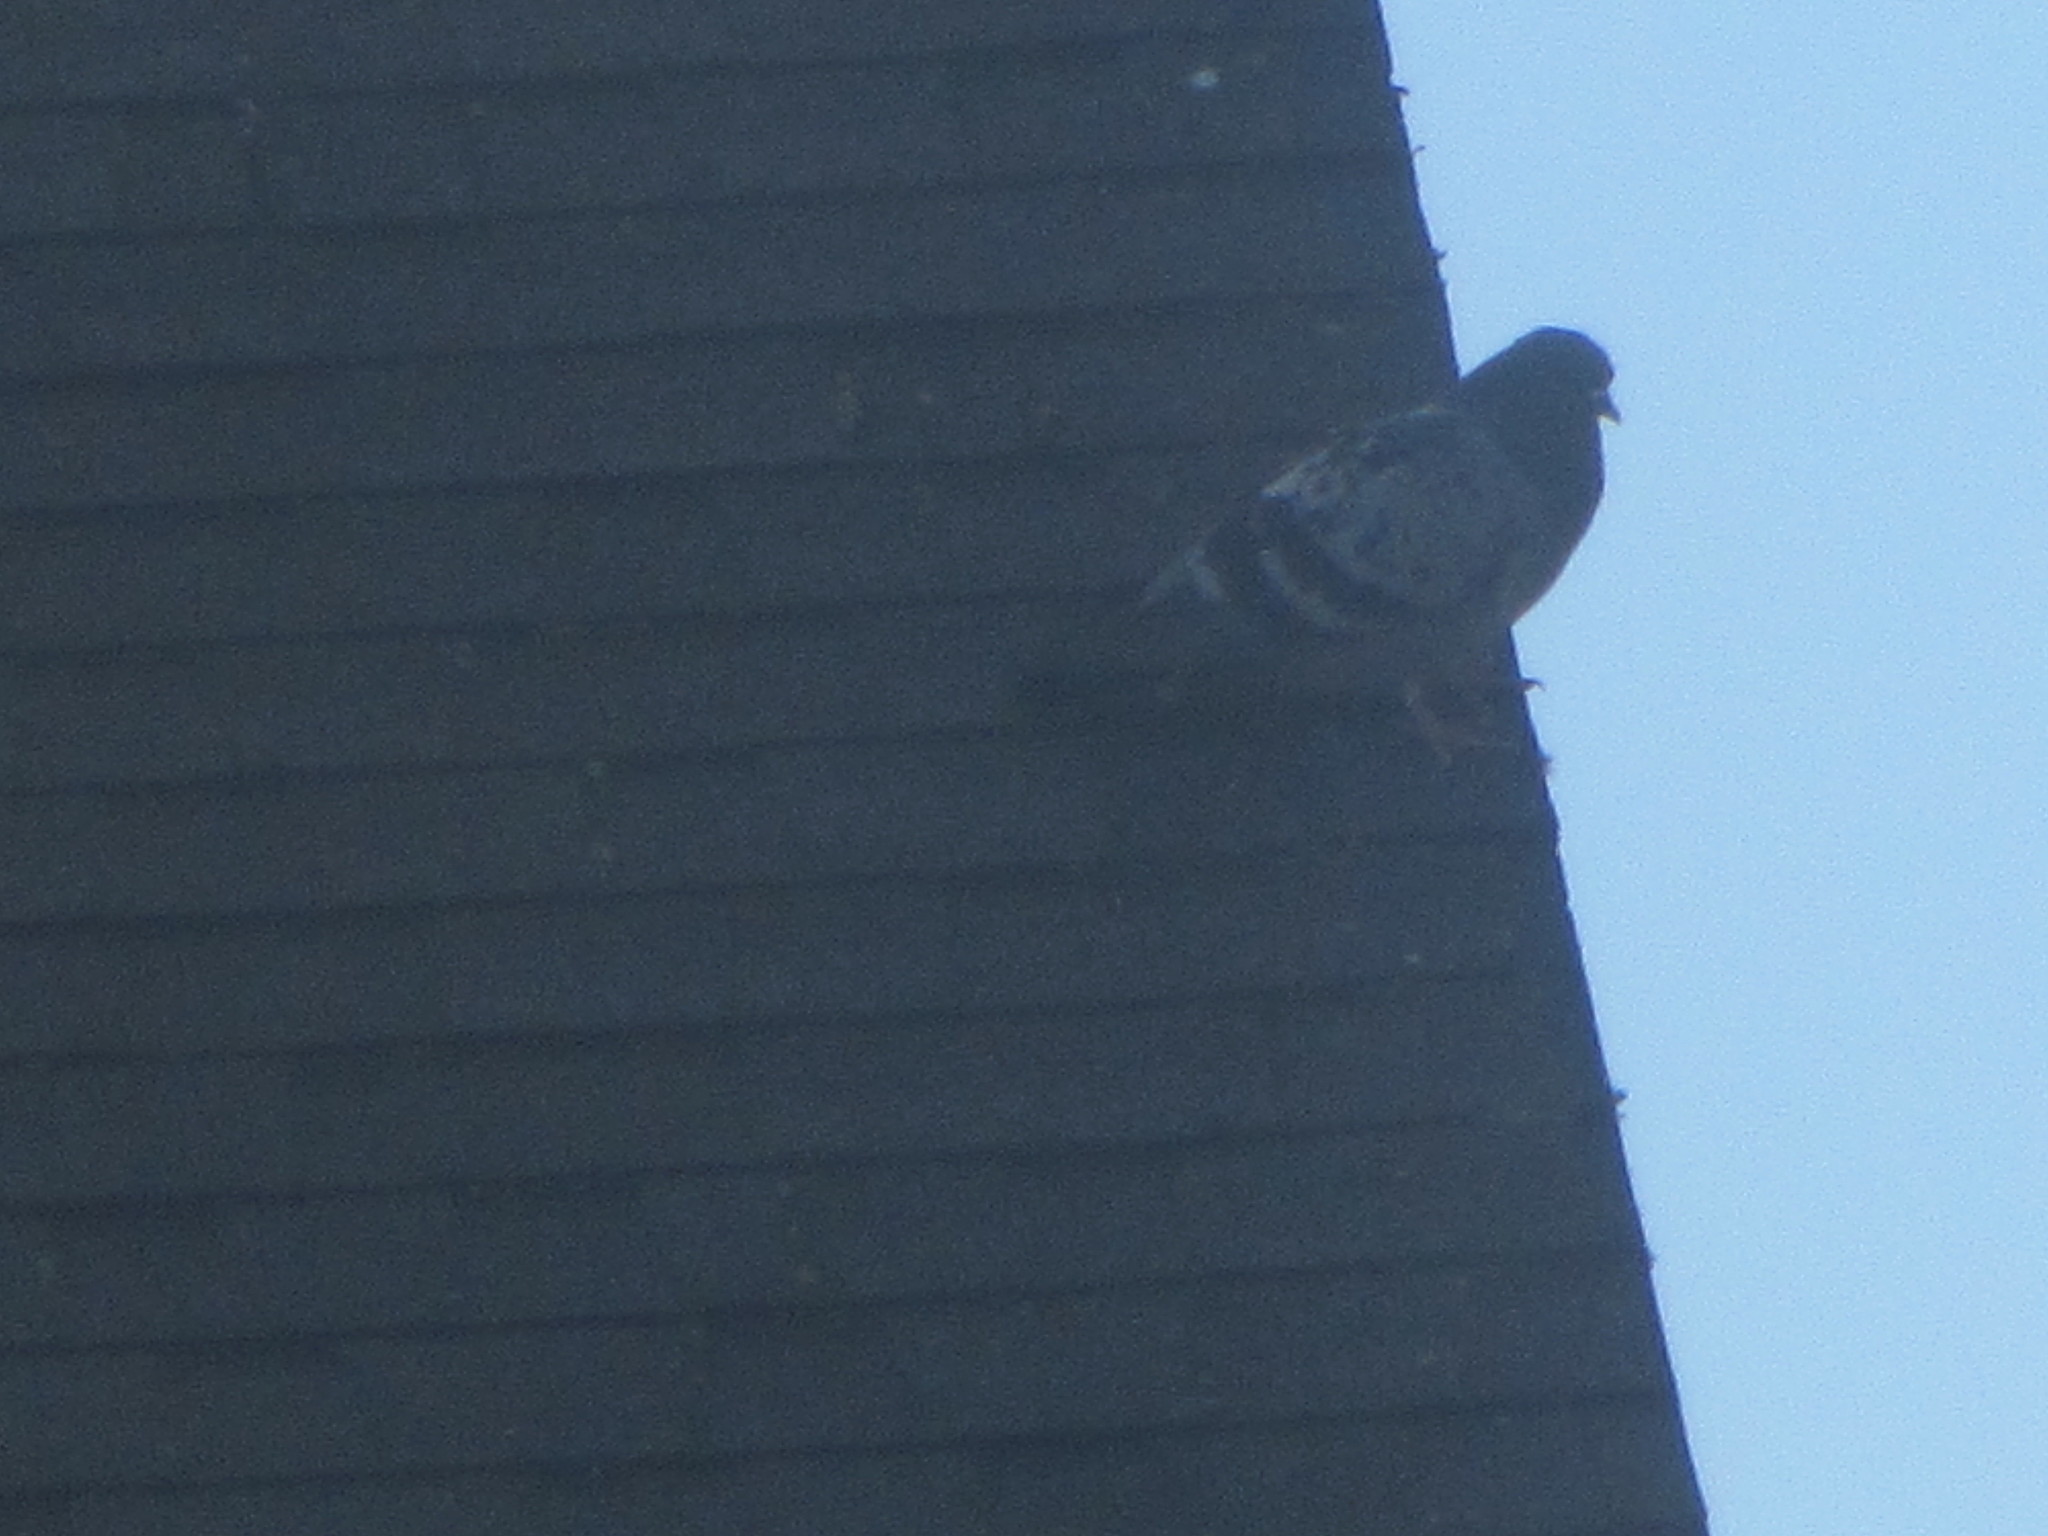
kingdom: Animalia
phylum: Chordata
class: Aves
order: Columbiformes
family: Columbidae
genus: Columba
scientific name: Columba livia
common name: Rock pigeon
